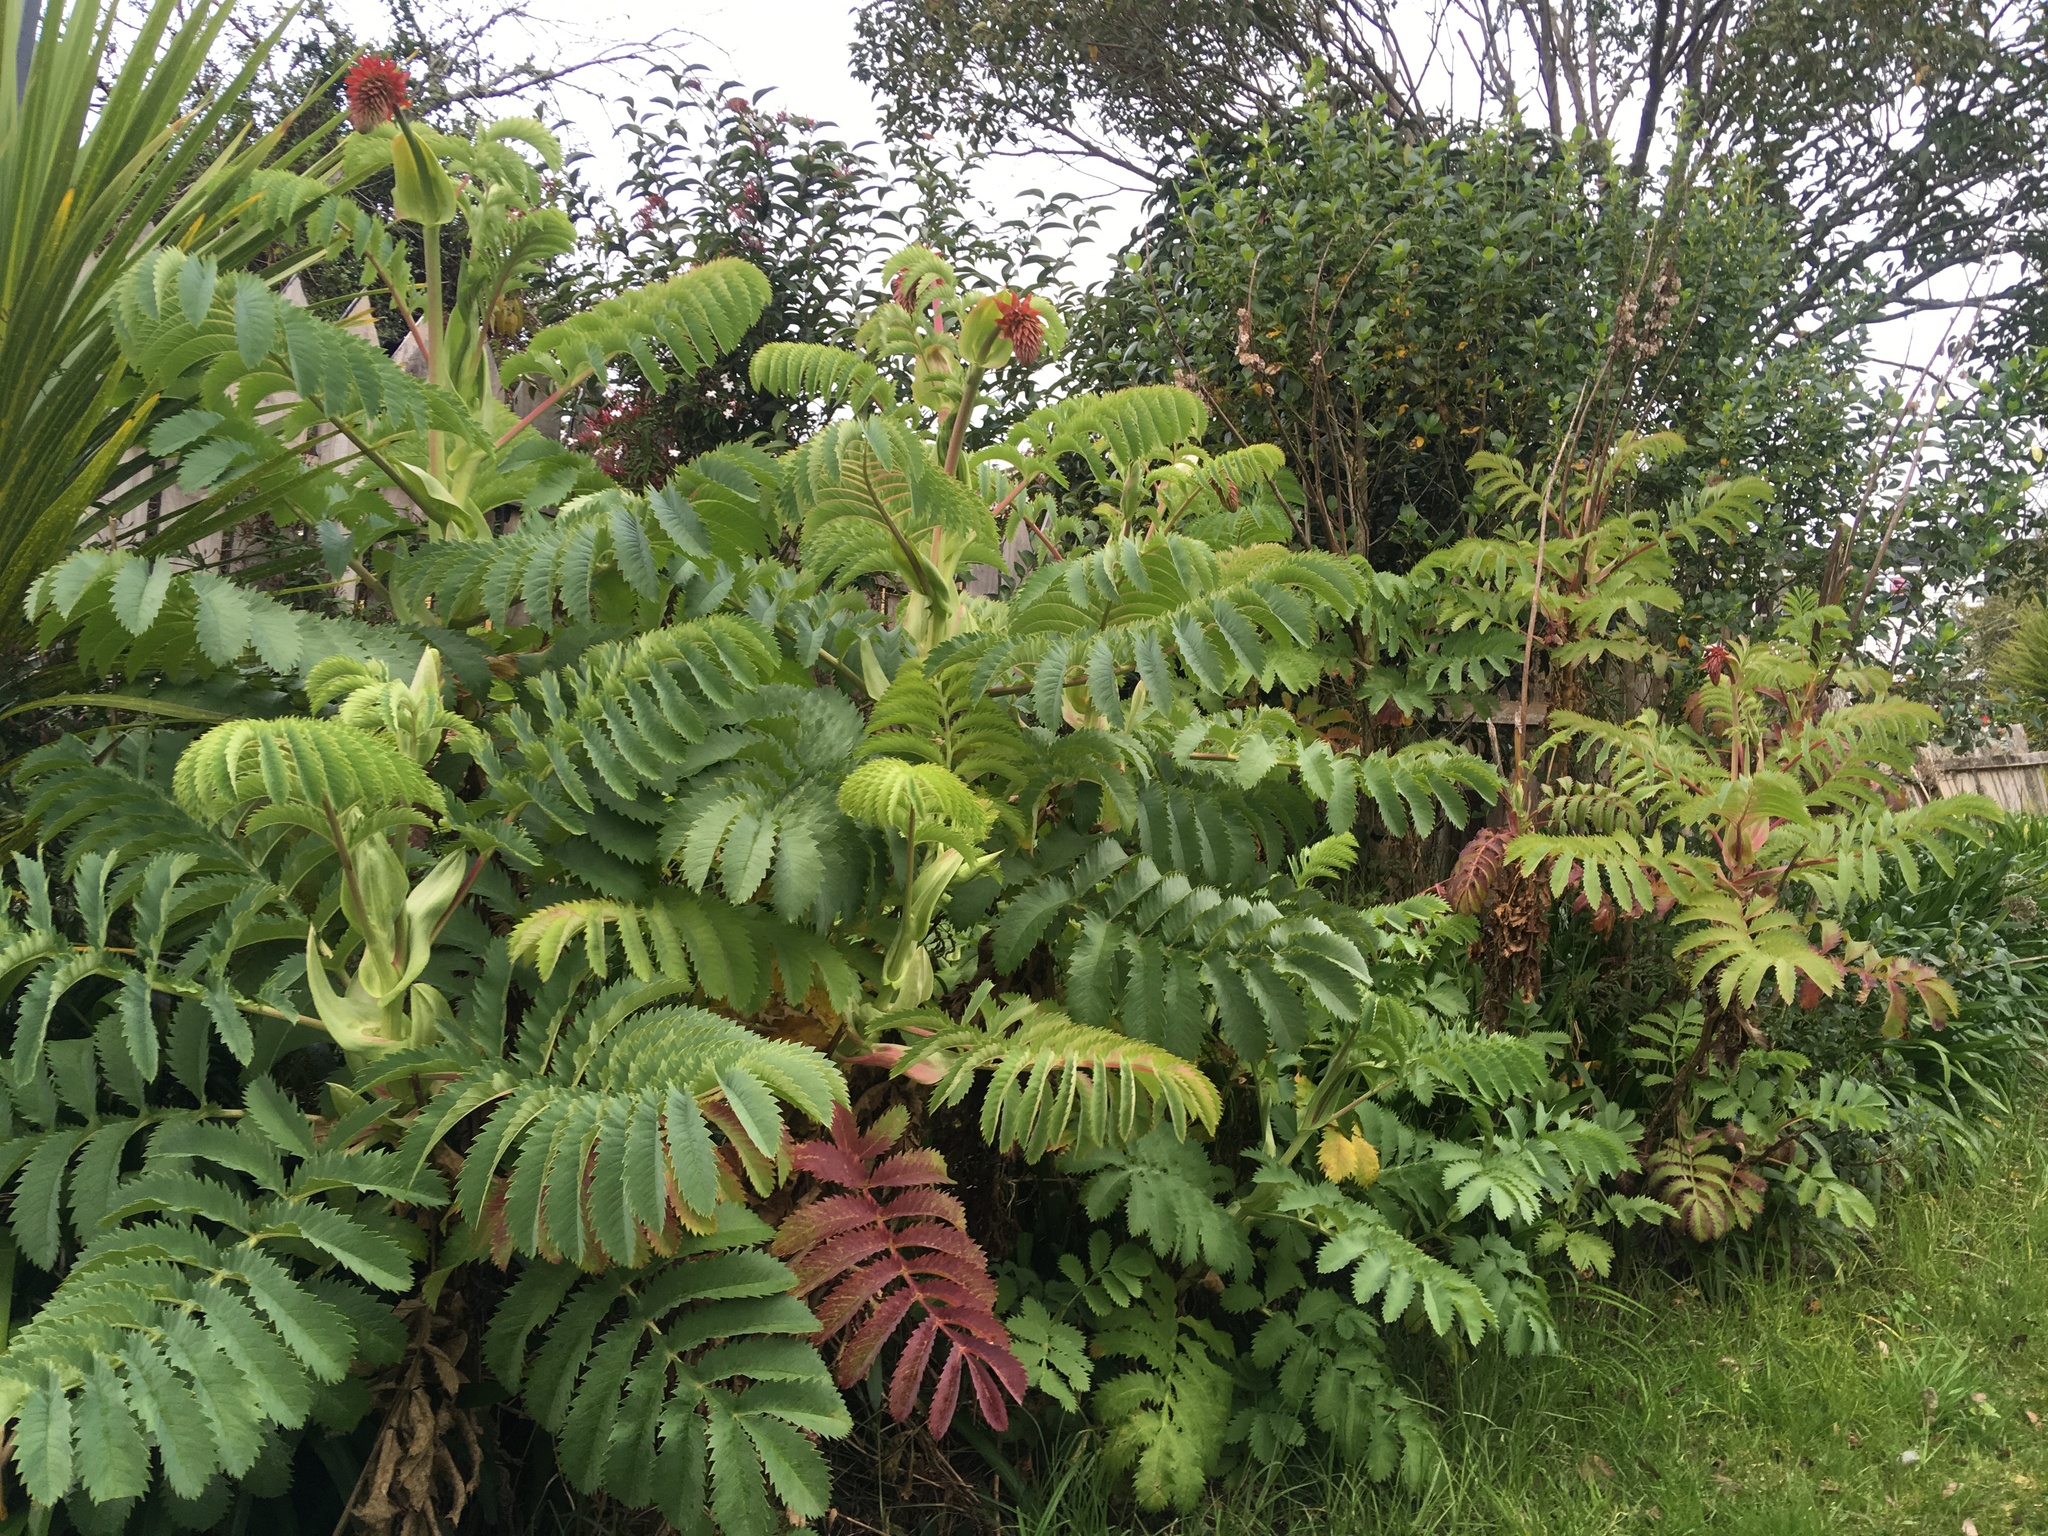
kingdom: Plantae
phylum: Tracheophyta
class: Magnoliopsida
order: Geraniales
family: Melianthaceae
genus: Melianthus
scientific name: Melianthus major
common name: Honey-flower
